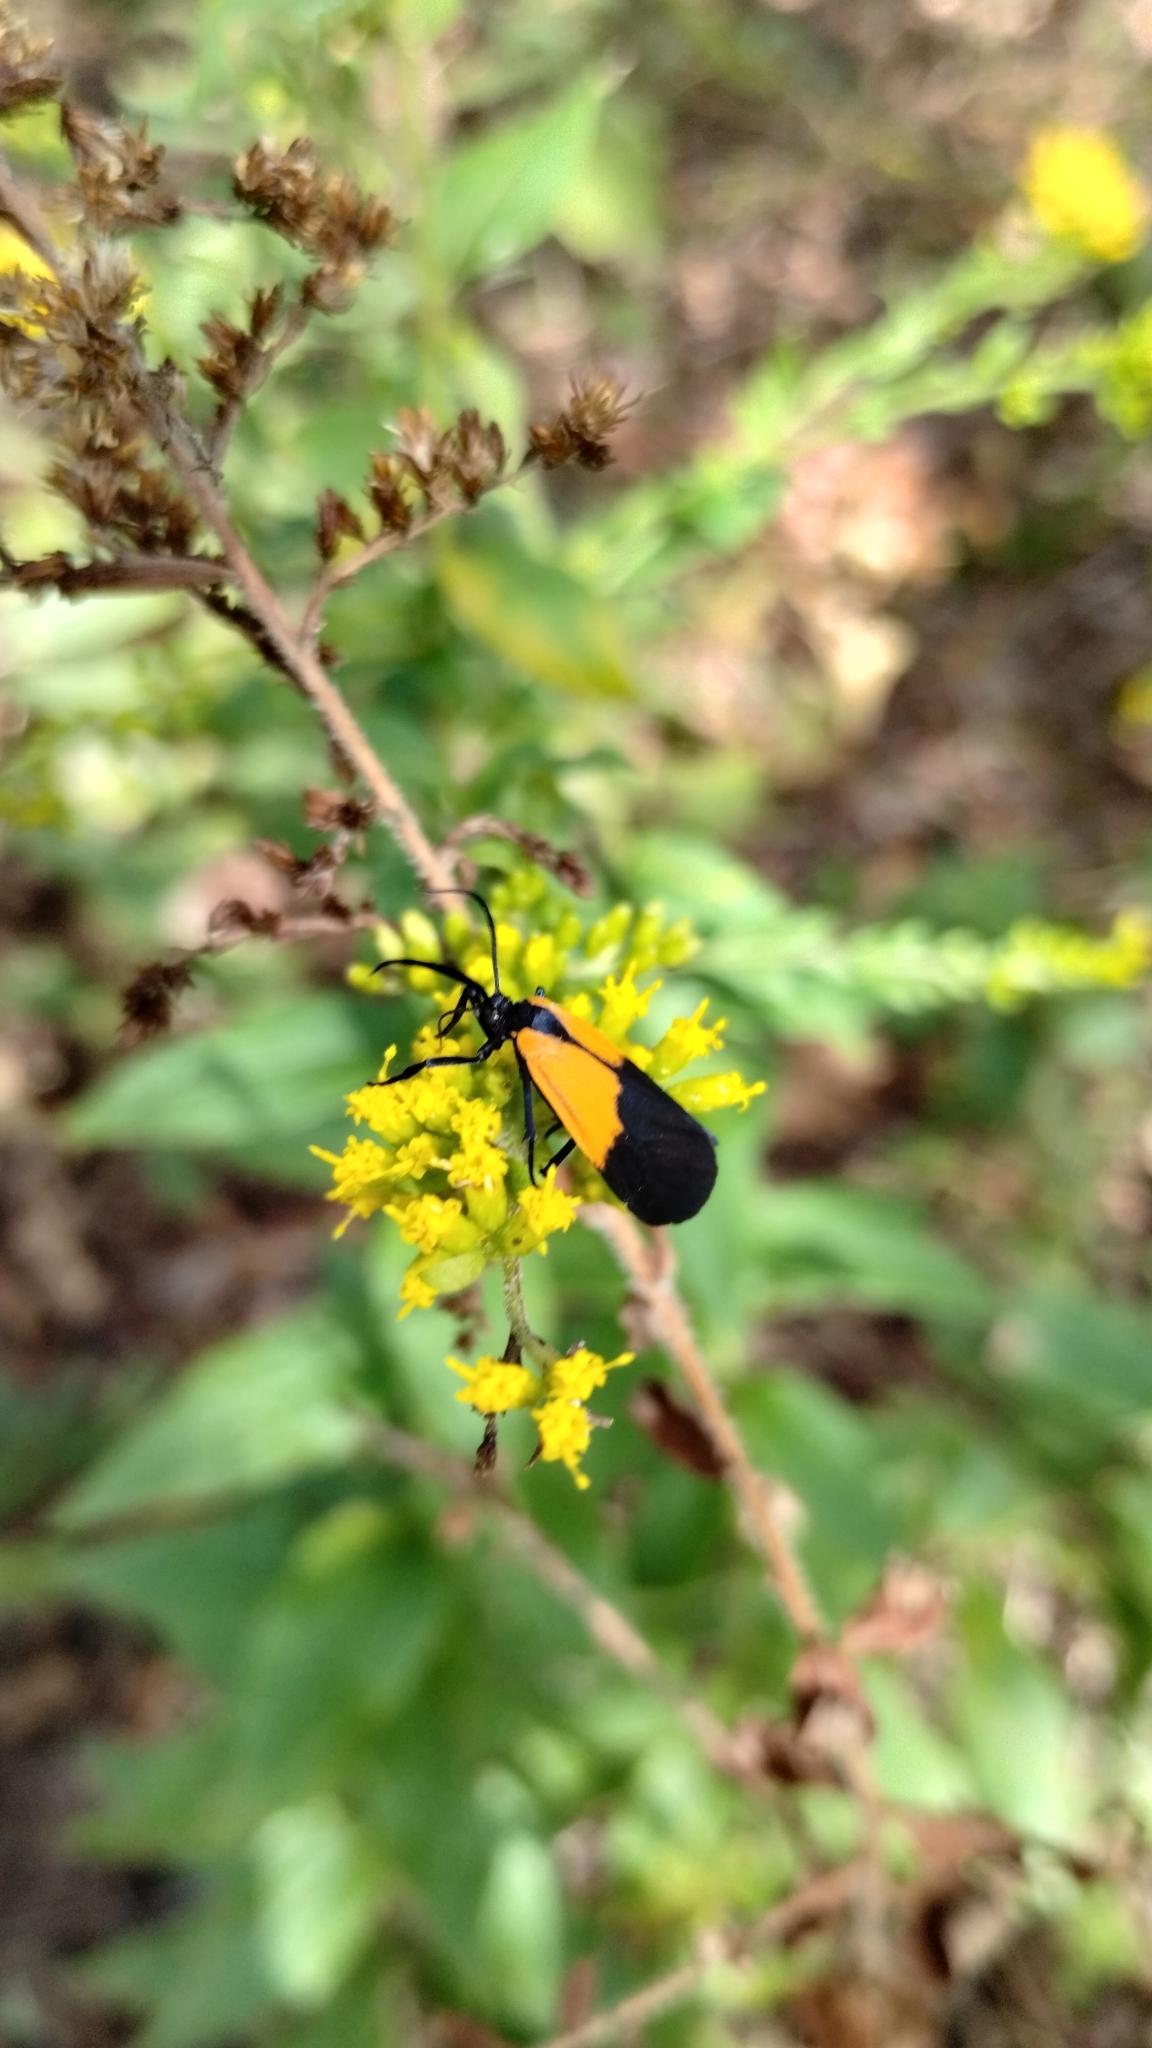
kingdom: Animalia
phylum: Arthropoda
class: Insecta
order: Lepidoptera
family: Erebidae
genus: Lycomorpha
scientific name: Lycomorpha pholus
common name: Black-and-yellow lichen moth
